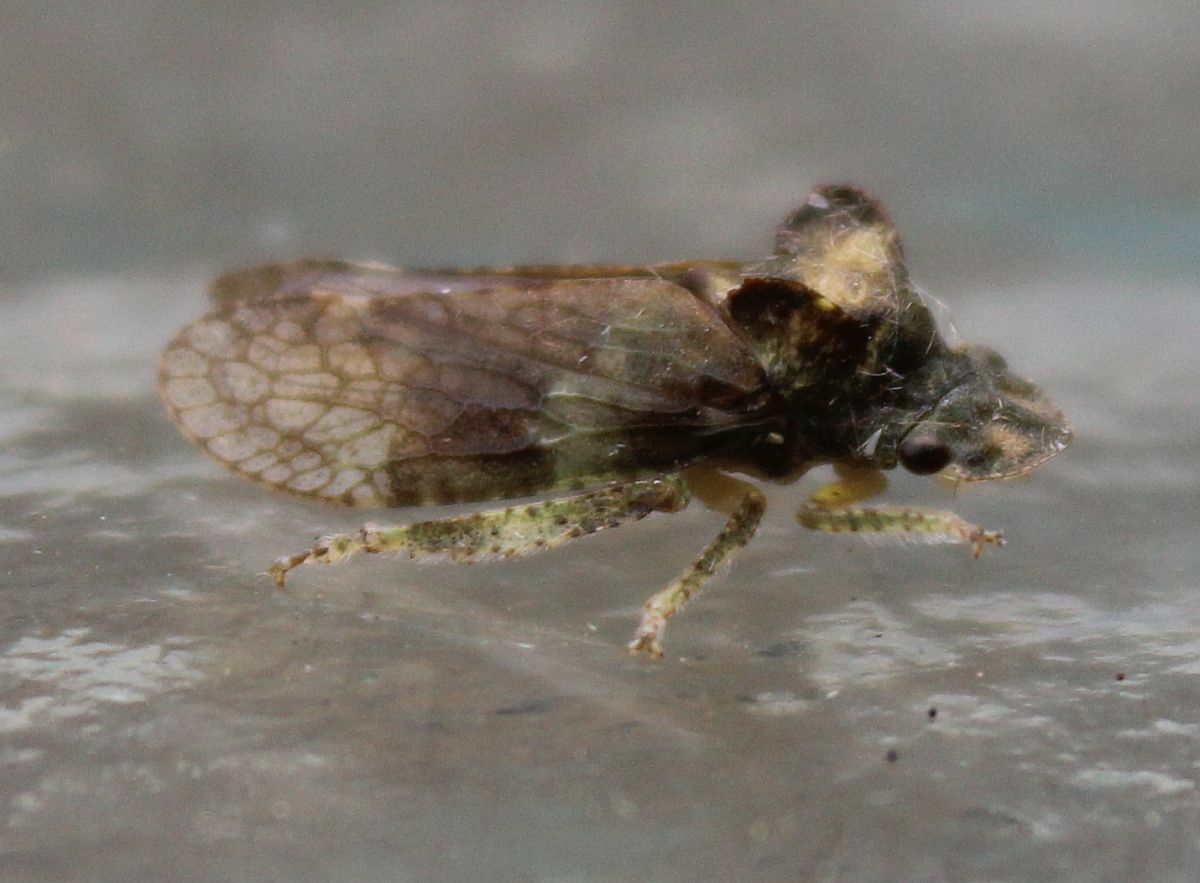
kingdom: Animalia
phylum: Arthropoda
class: Insecta
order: Hemiptera
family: Cicadellidae
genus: Ledra
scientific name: Ledra aurita
